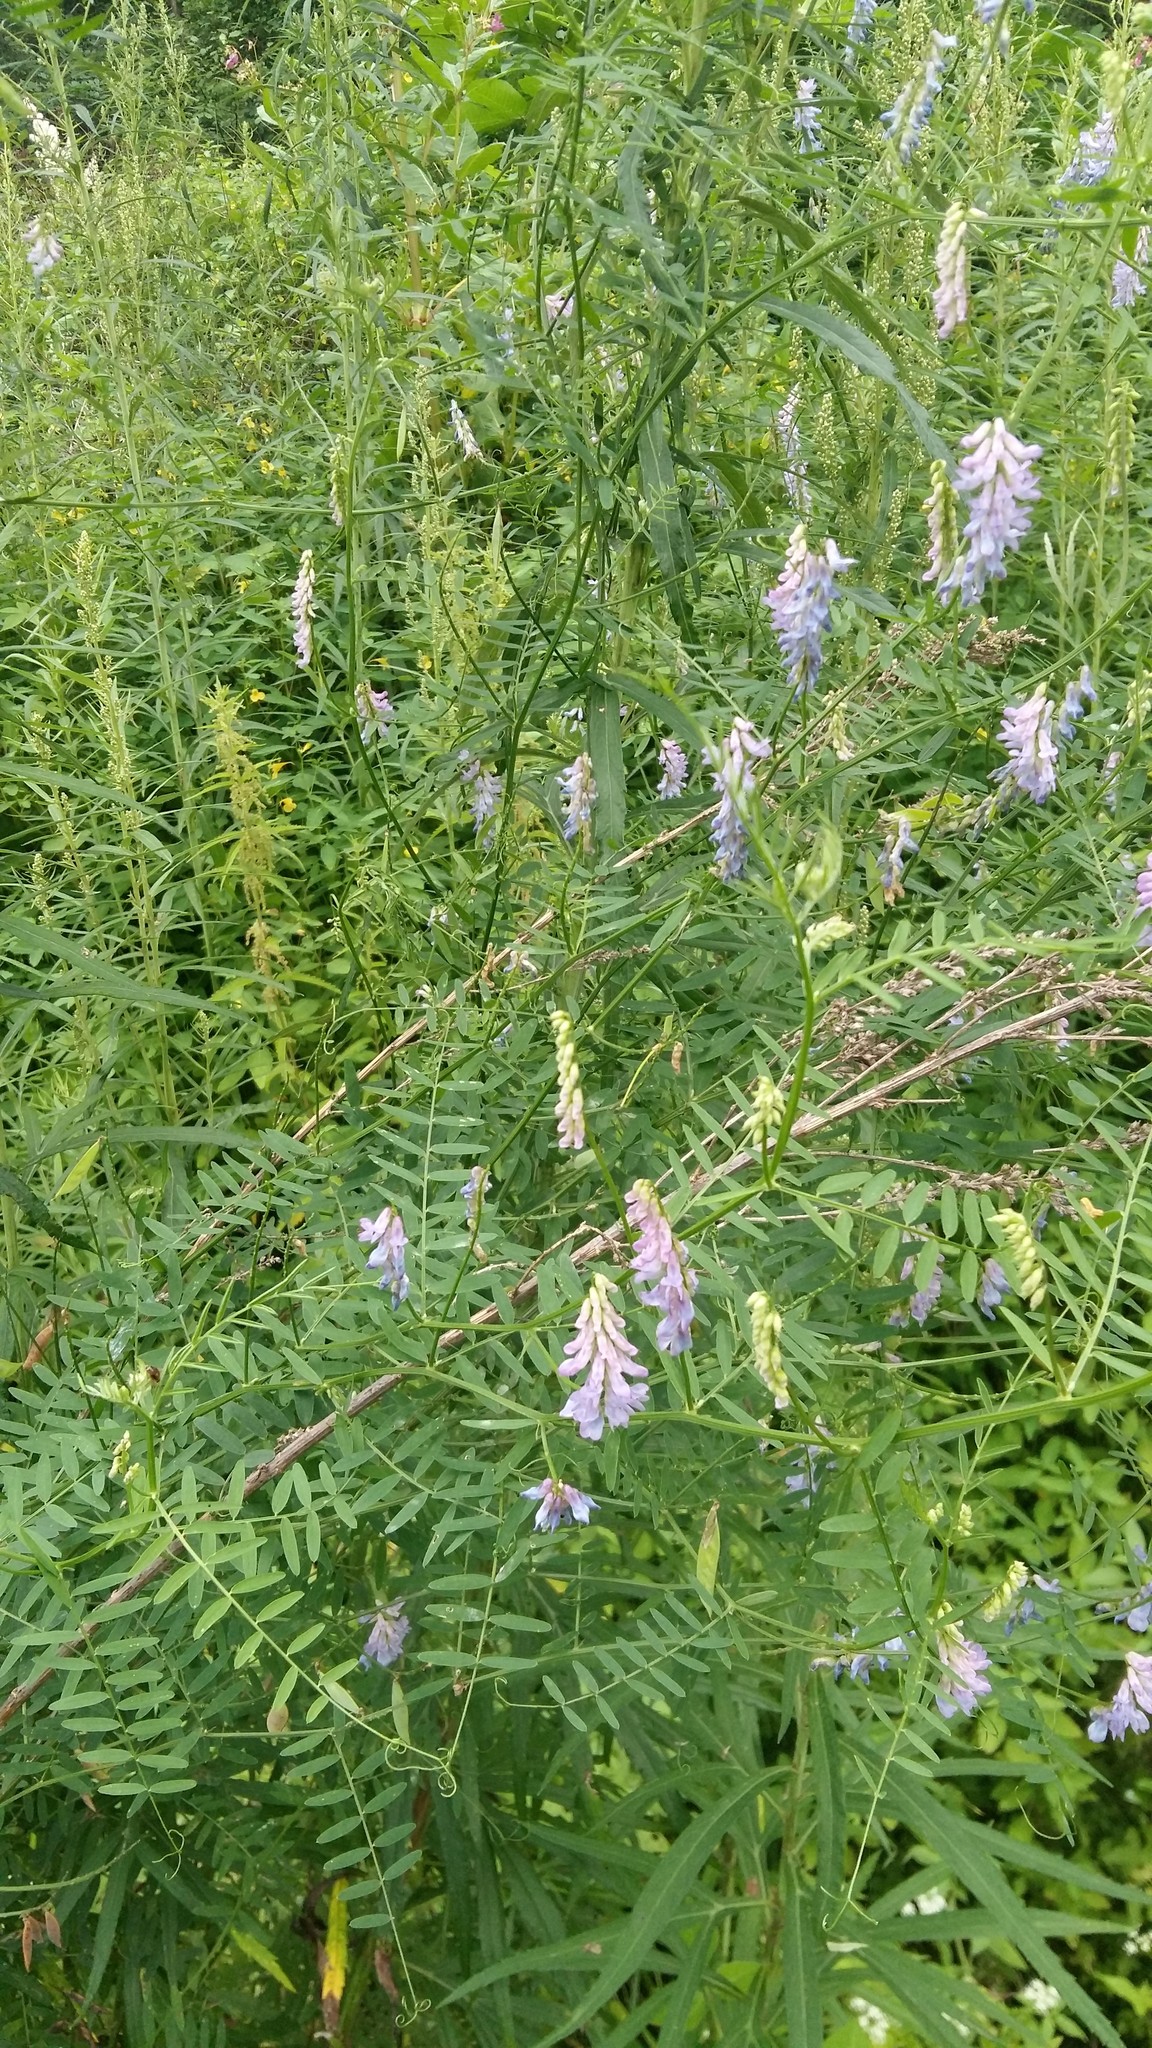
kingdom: Plantae
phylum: Tracheophyta
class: Magnoliopsida
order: Fabales
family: Fabaceae
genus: Vicia
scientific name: Vicia cracca
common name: Bird vetch
